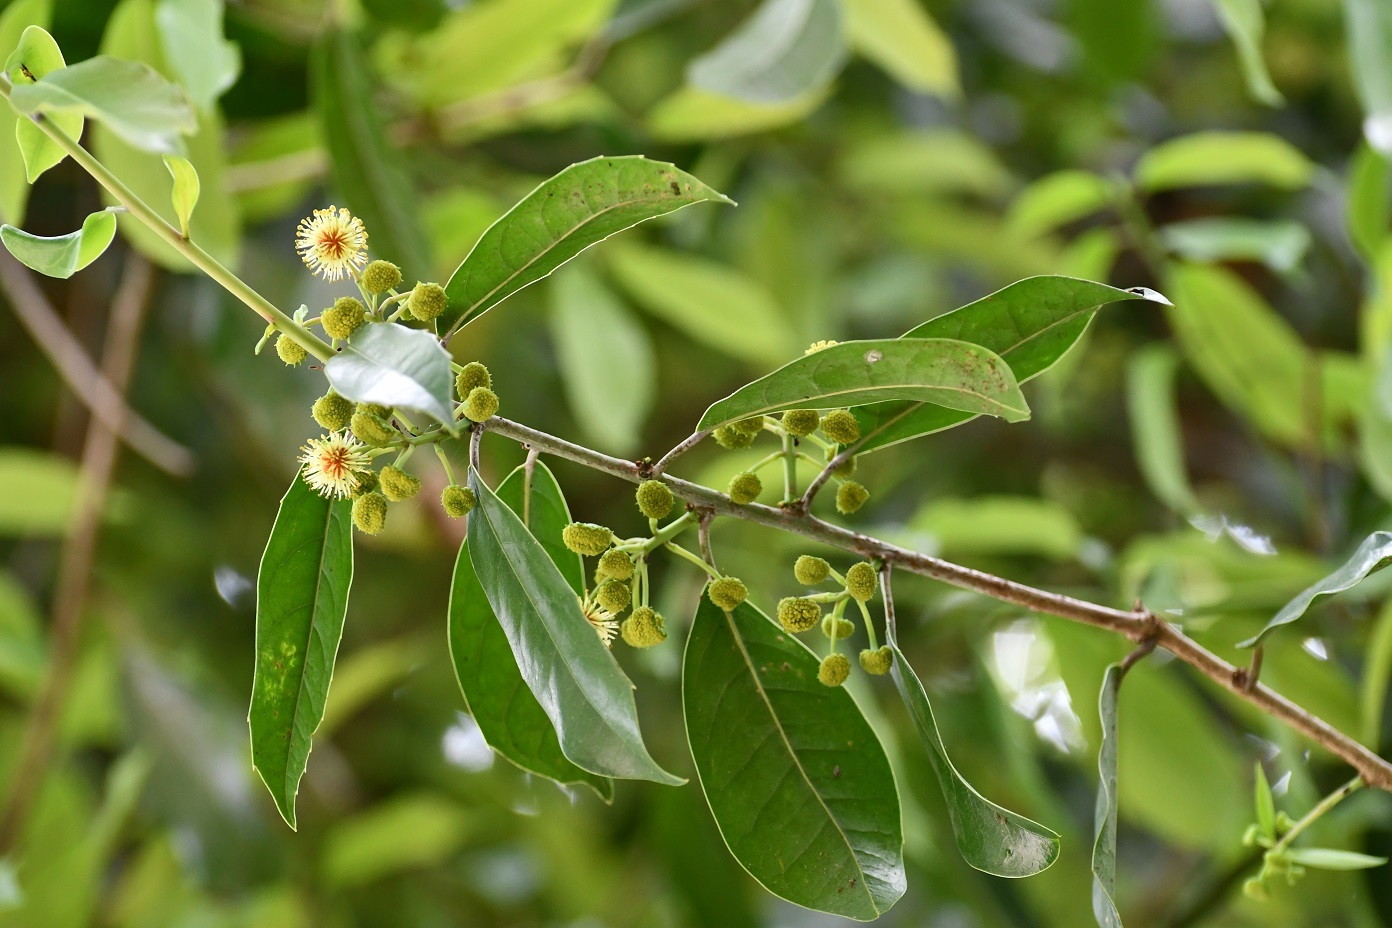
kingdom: Plantae
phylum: Tracheophyta
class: Magnoliopsida
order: Malpighiales
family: Salicaceae
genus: Olmediella
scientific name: Olmediella betschleriana
